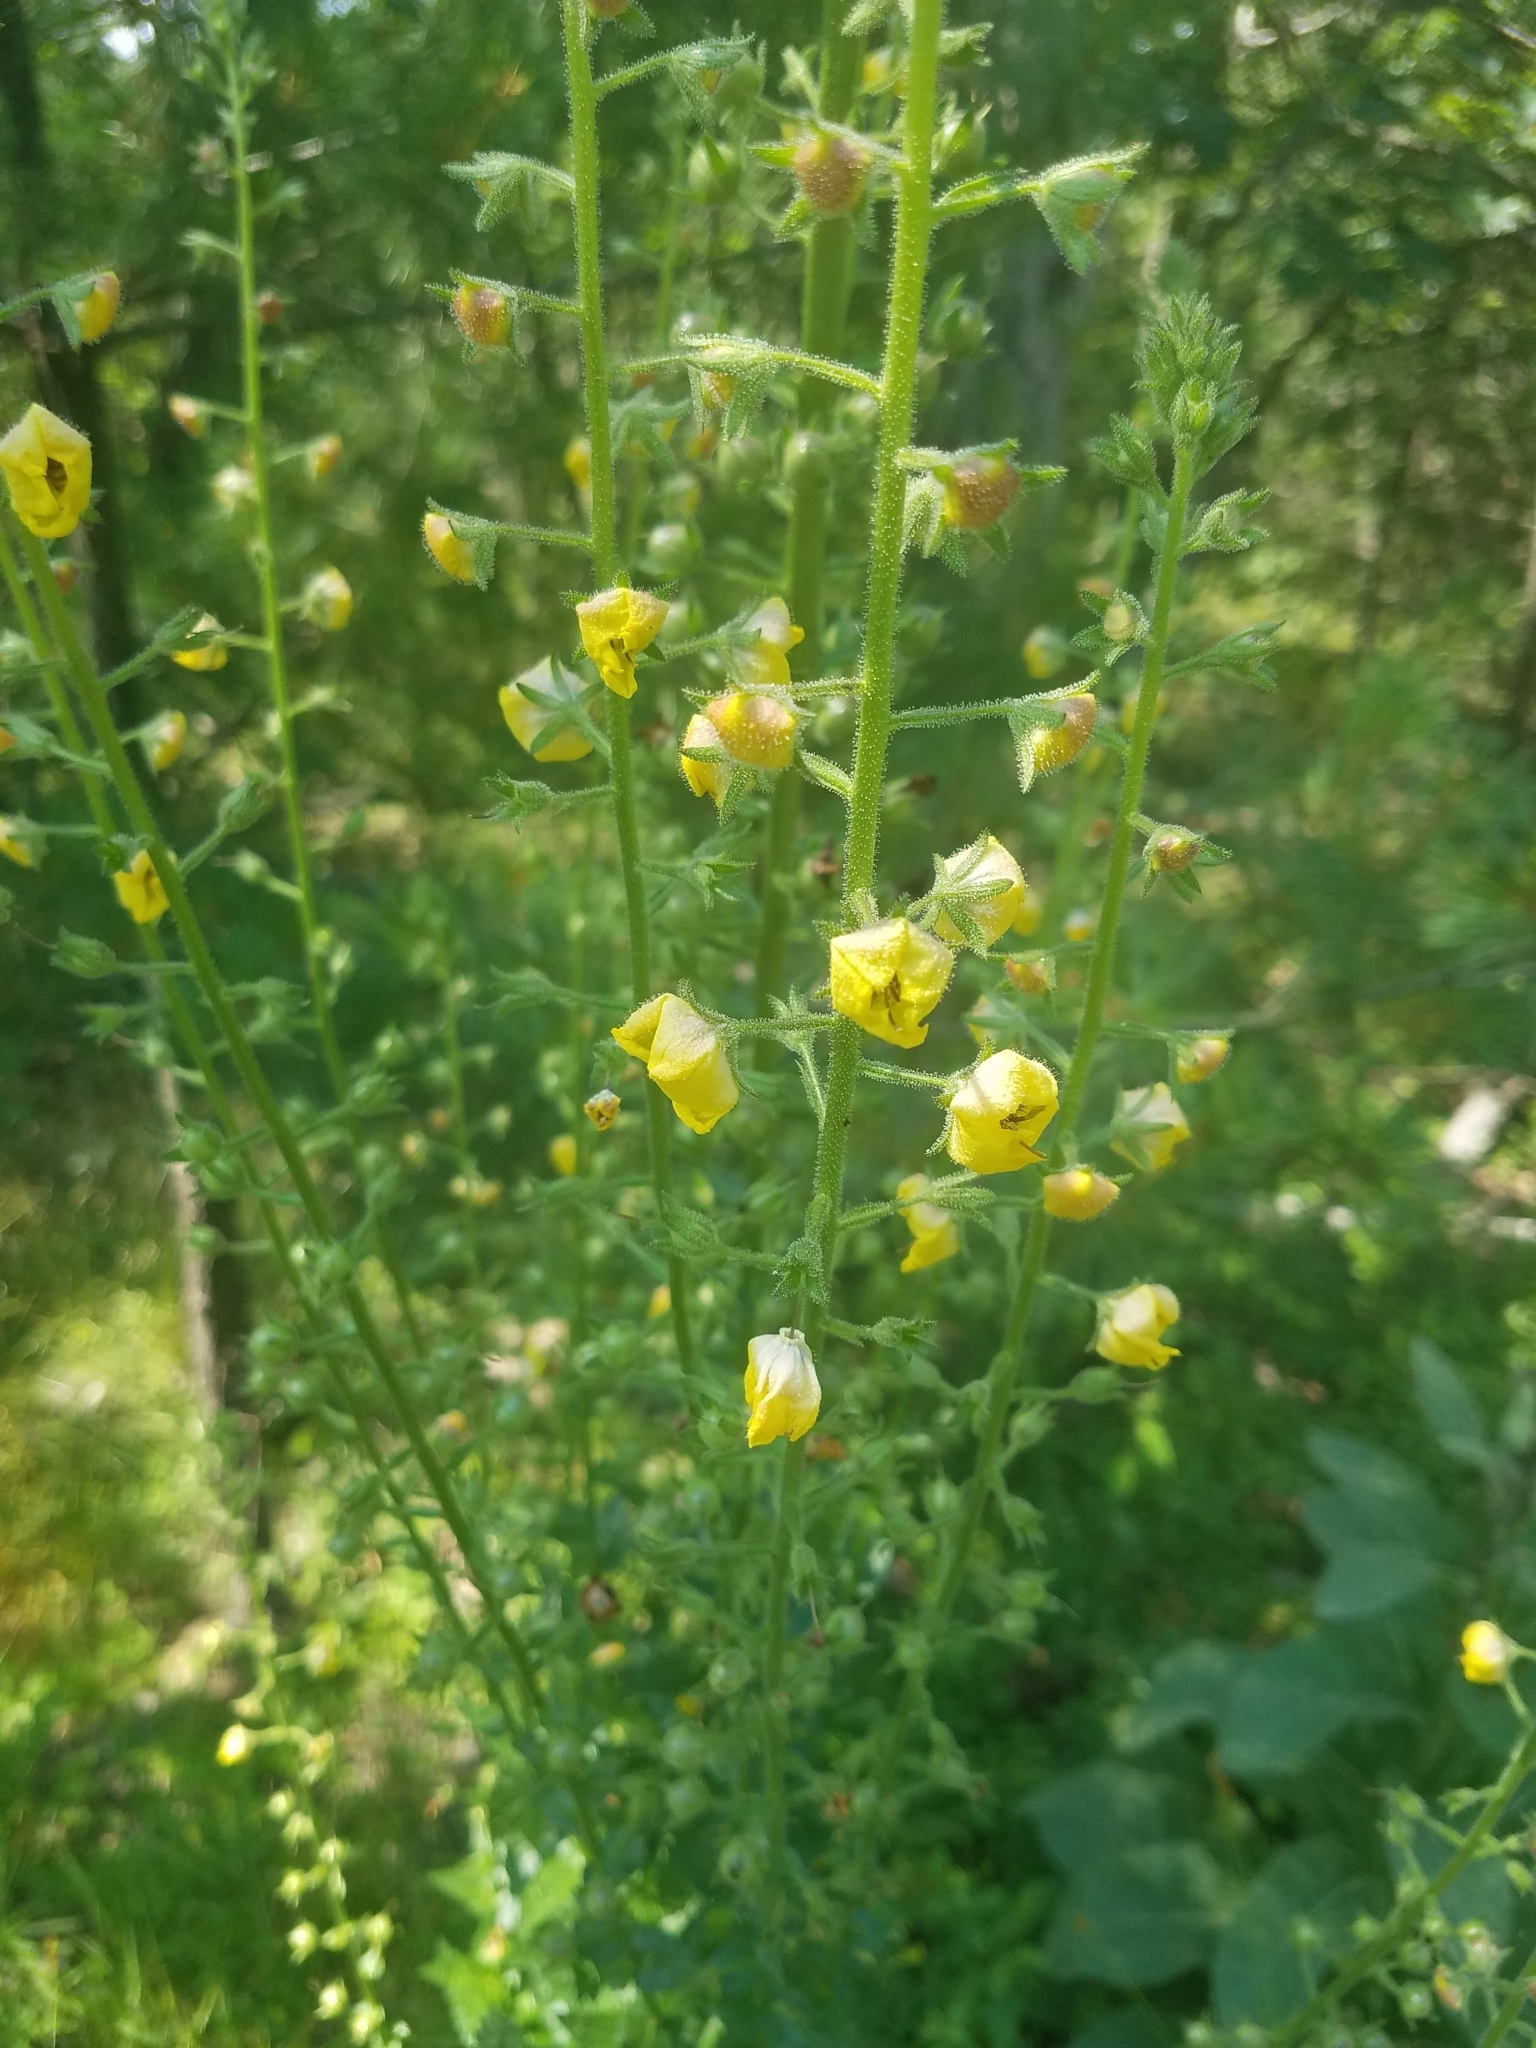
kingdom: Plantae
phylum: Tracheophyta
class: Magnoliopsida
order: Lamiales
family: Scrophulariaceae
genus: Verbascum
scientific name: Verbascum blattaria
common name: Moth mullein
